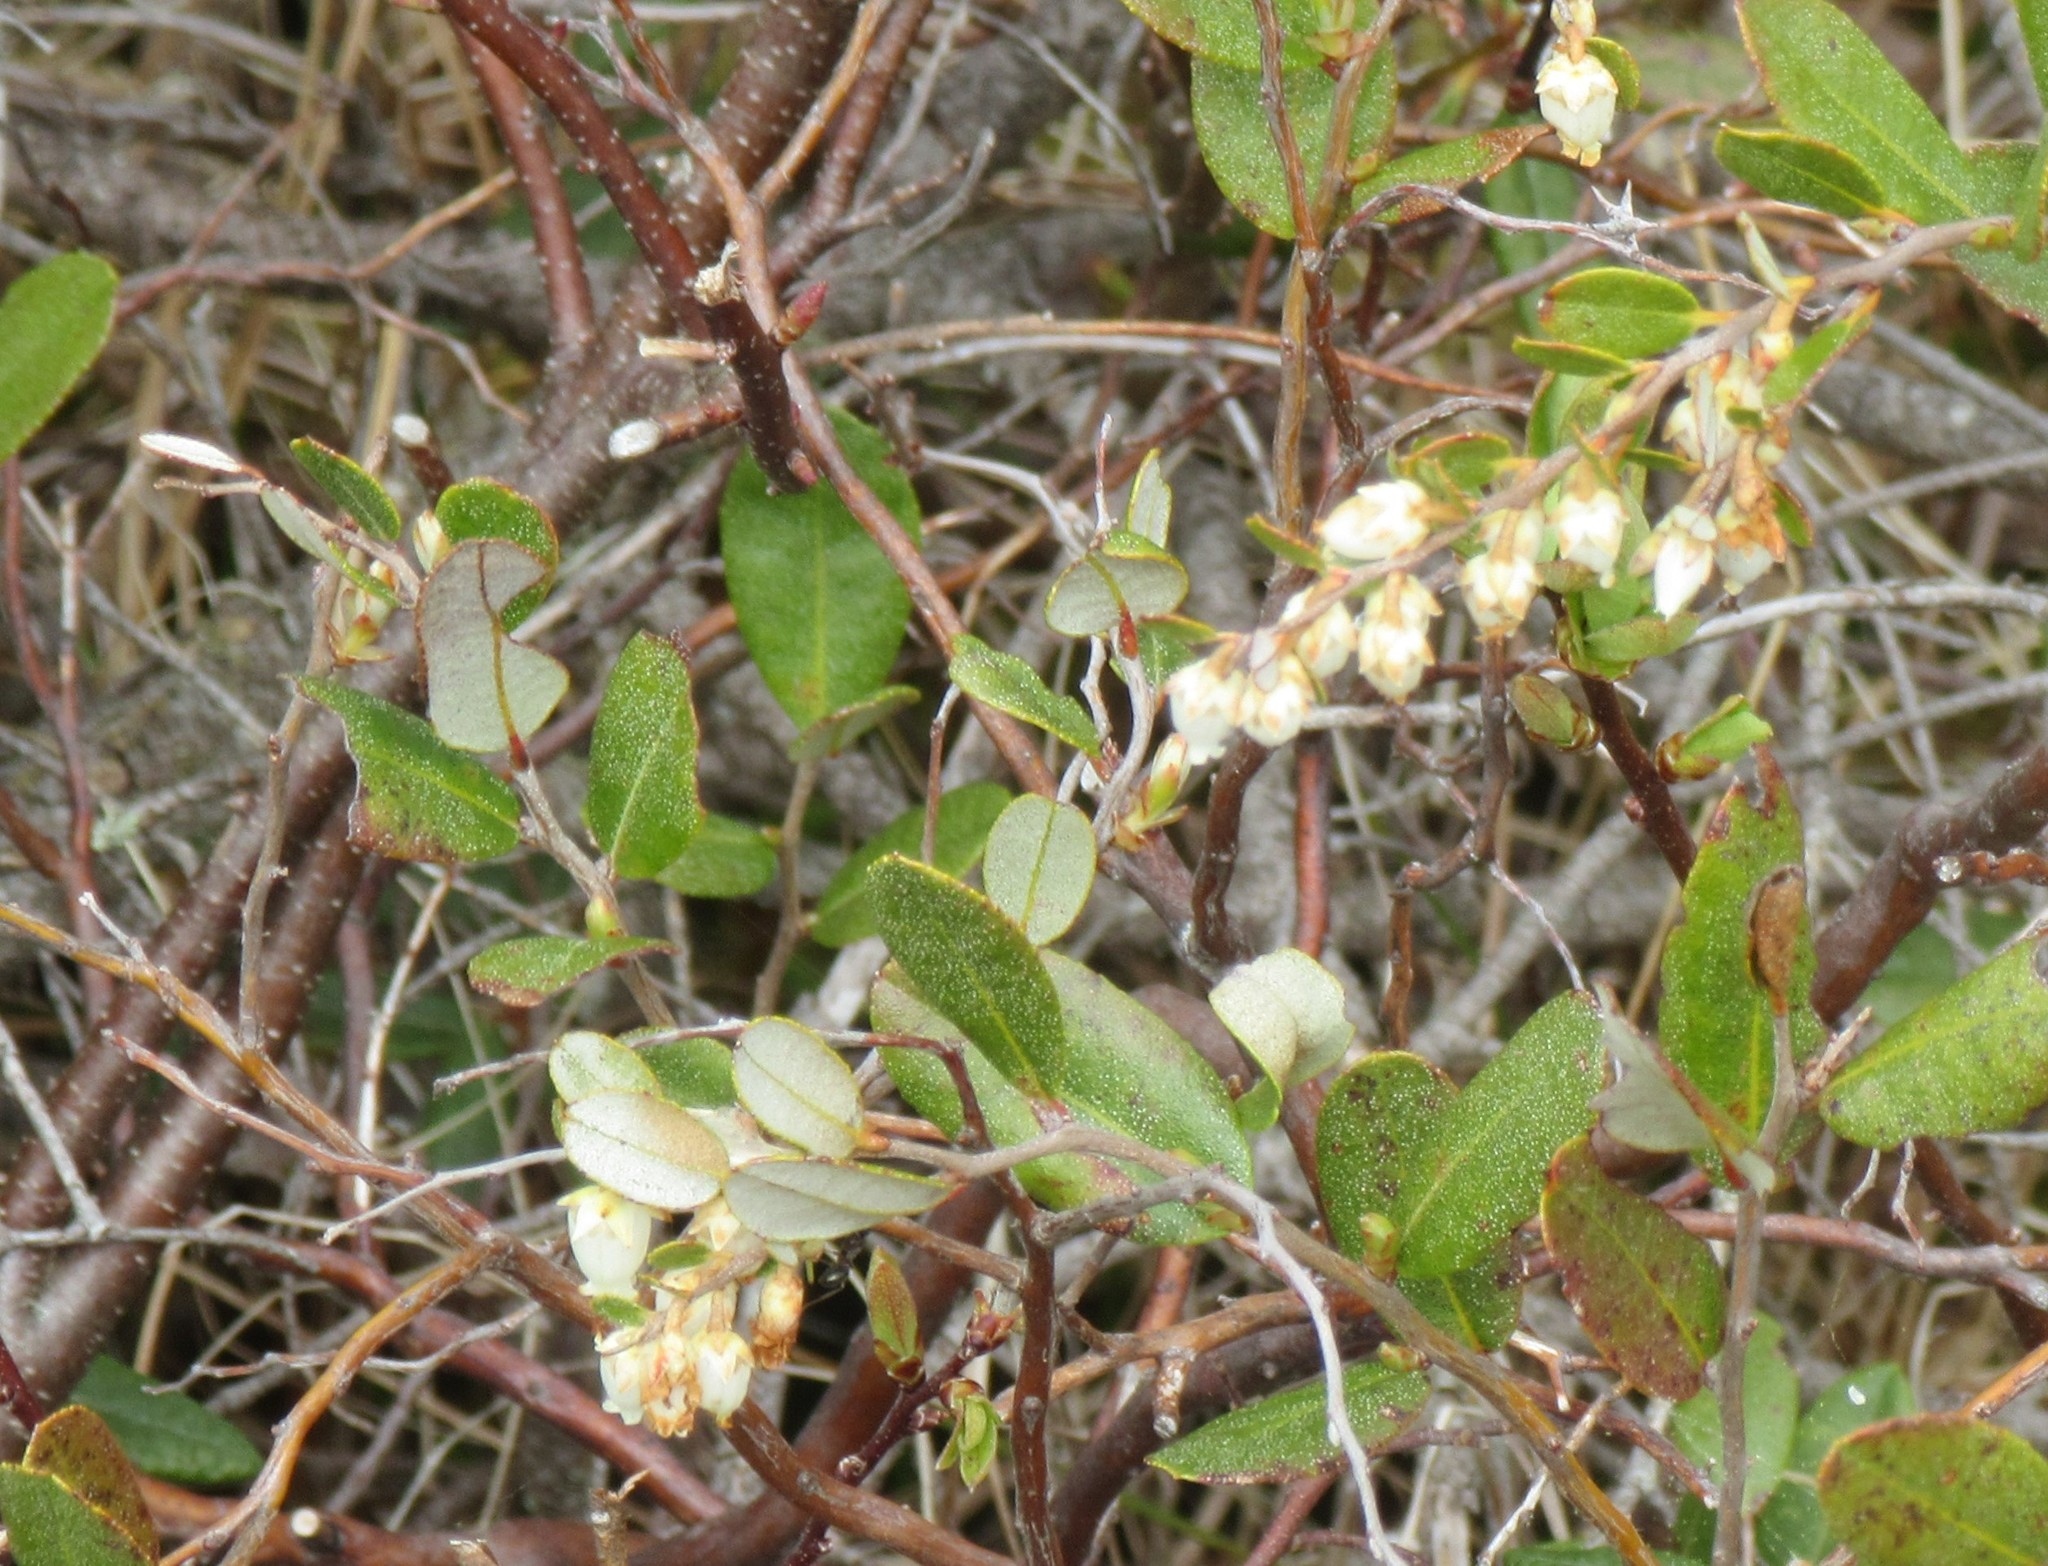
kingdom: Plantae
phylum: Tracheophyta
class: Magnoliopsida
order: Ericales
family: Ericaceae
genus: Chamaedaphne
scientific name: Chamaedaphne calyculata
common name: Leatherleaf
